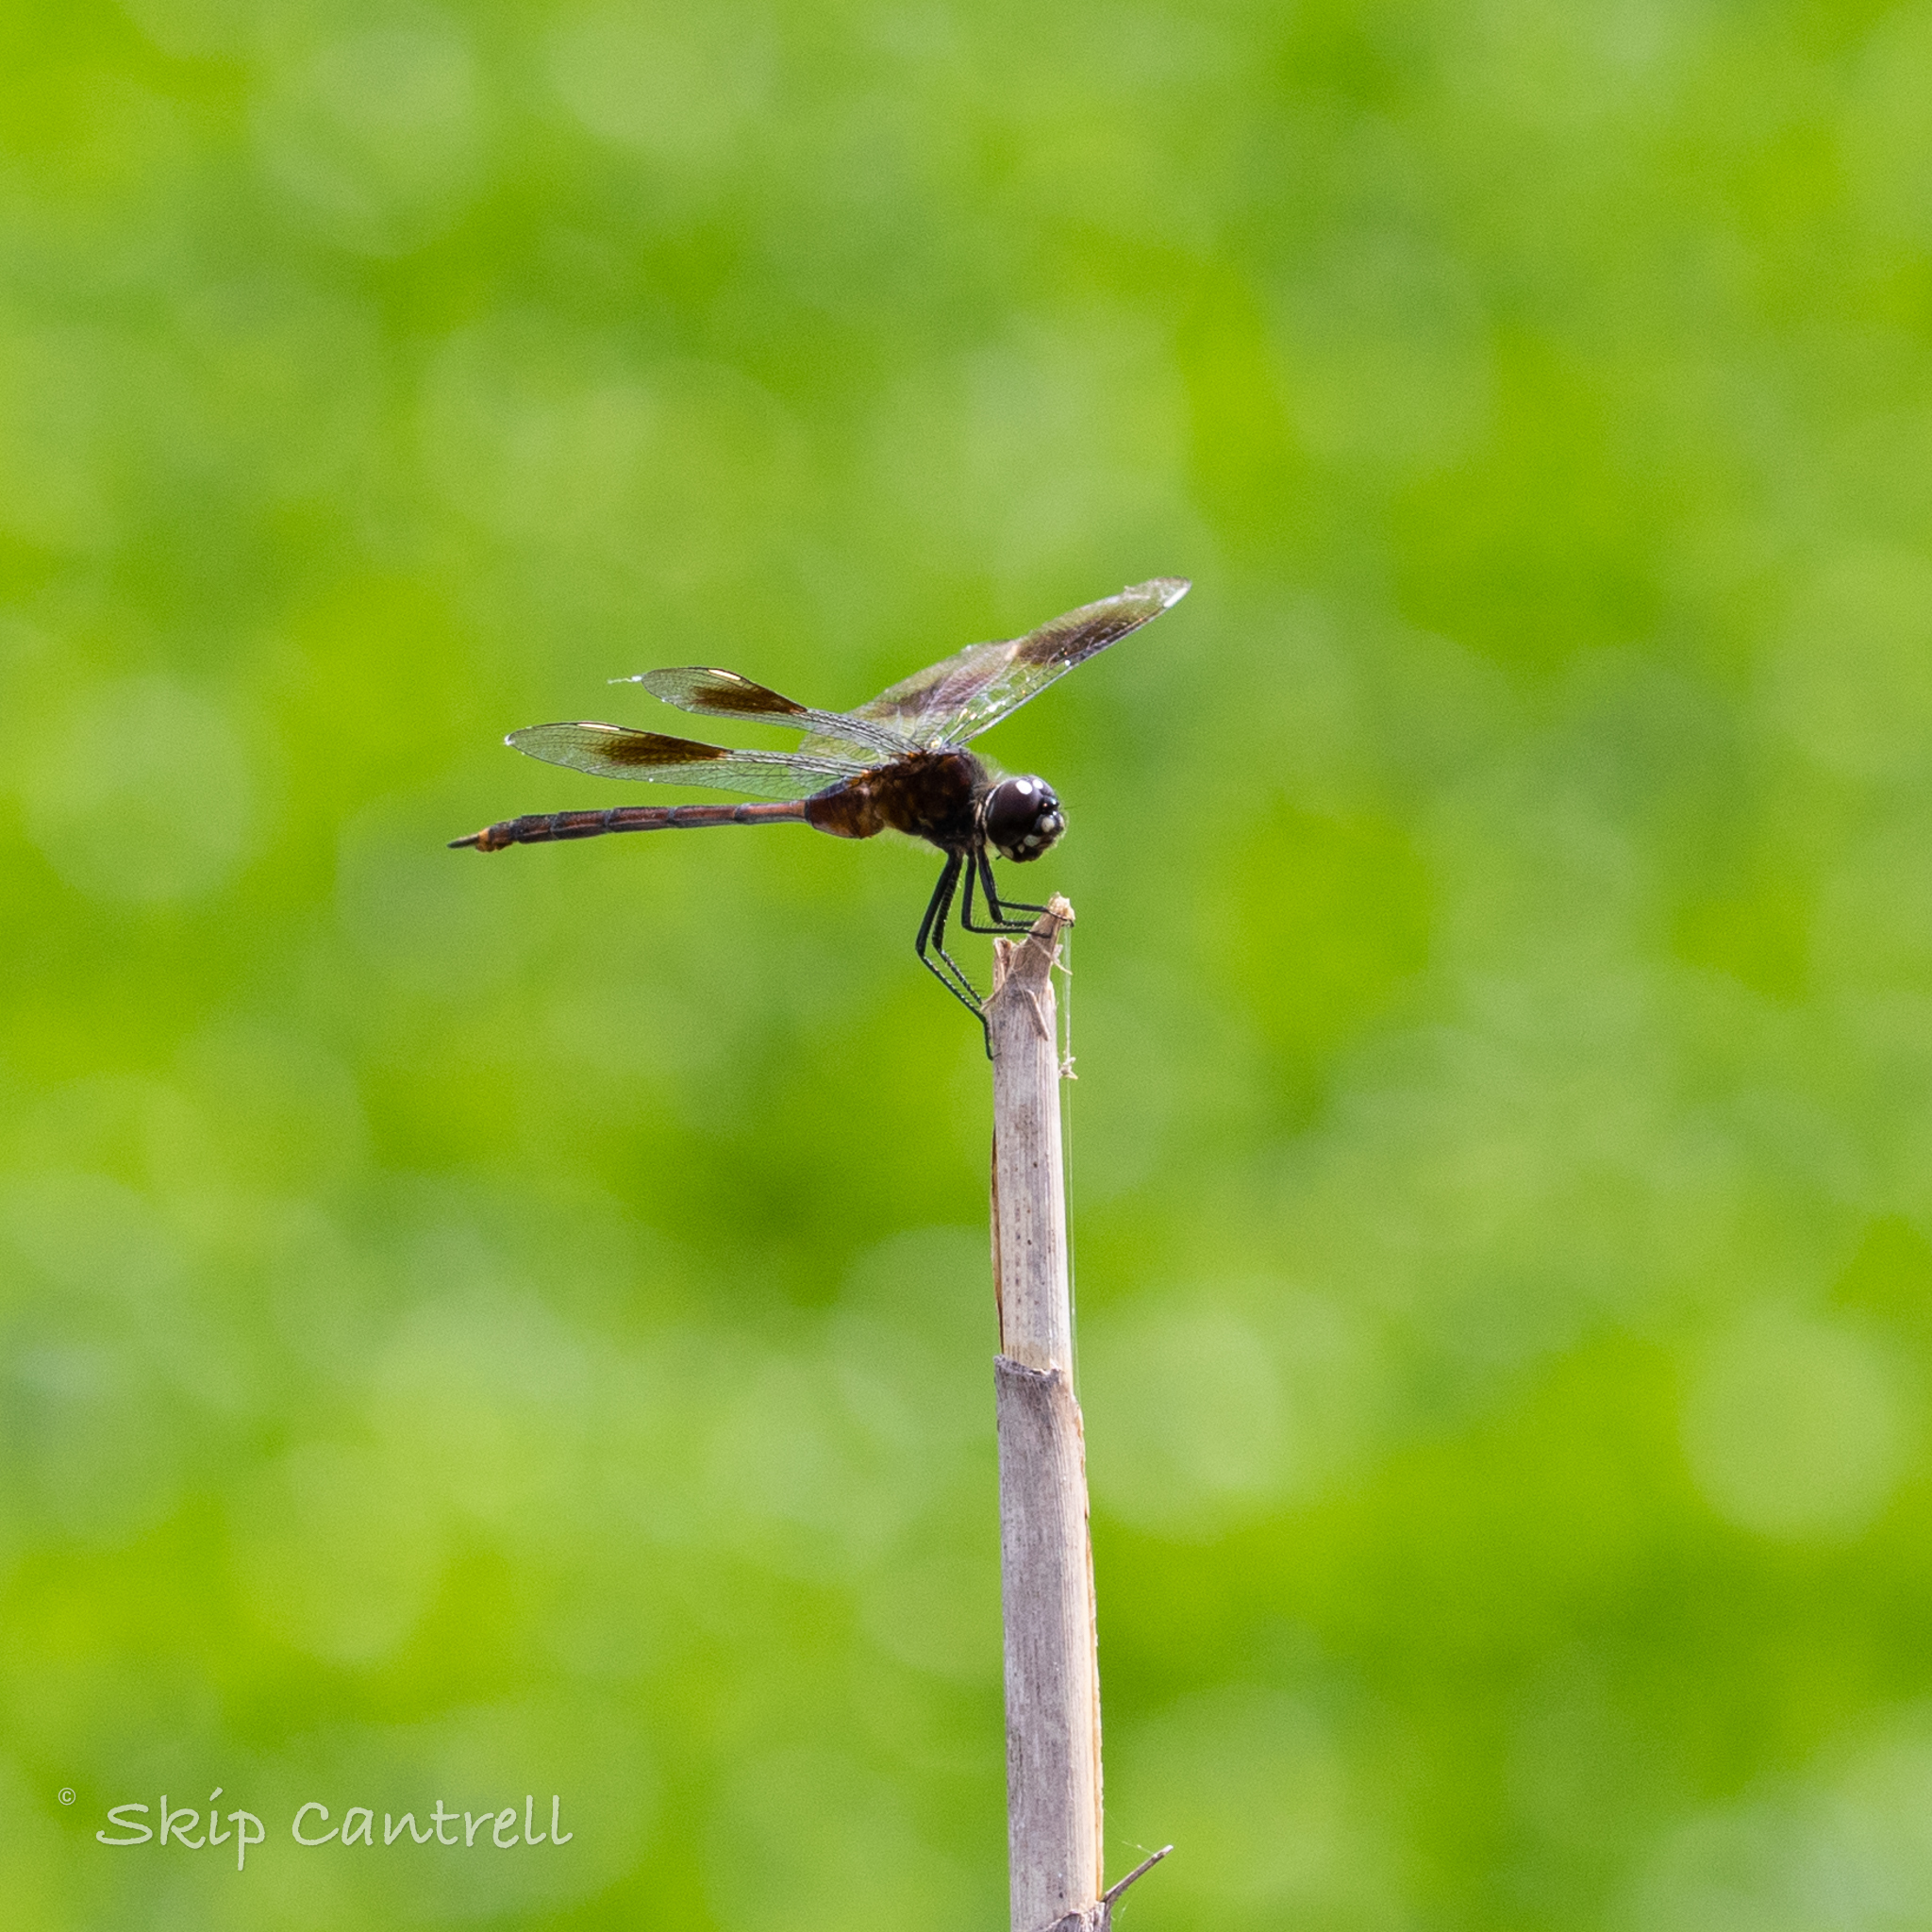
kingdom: Animalia
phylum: Arthropoda
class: Insecta
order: Odonata
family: Libellulidae
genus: Brachymesia
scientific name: Brachymesia gravida
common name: Four-spotted pennant
